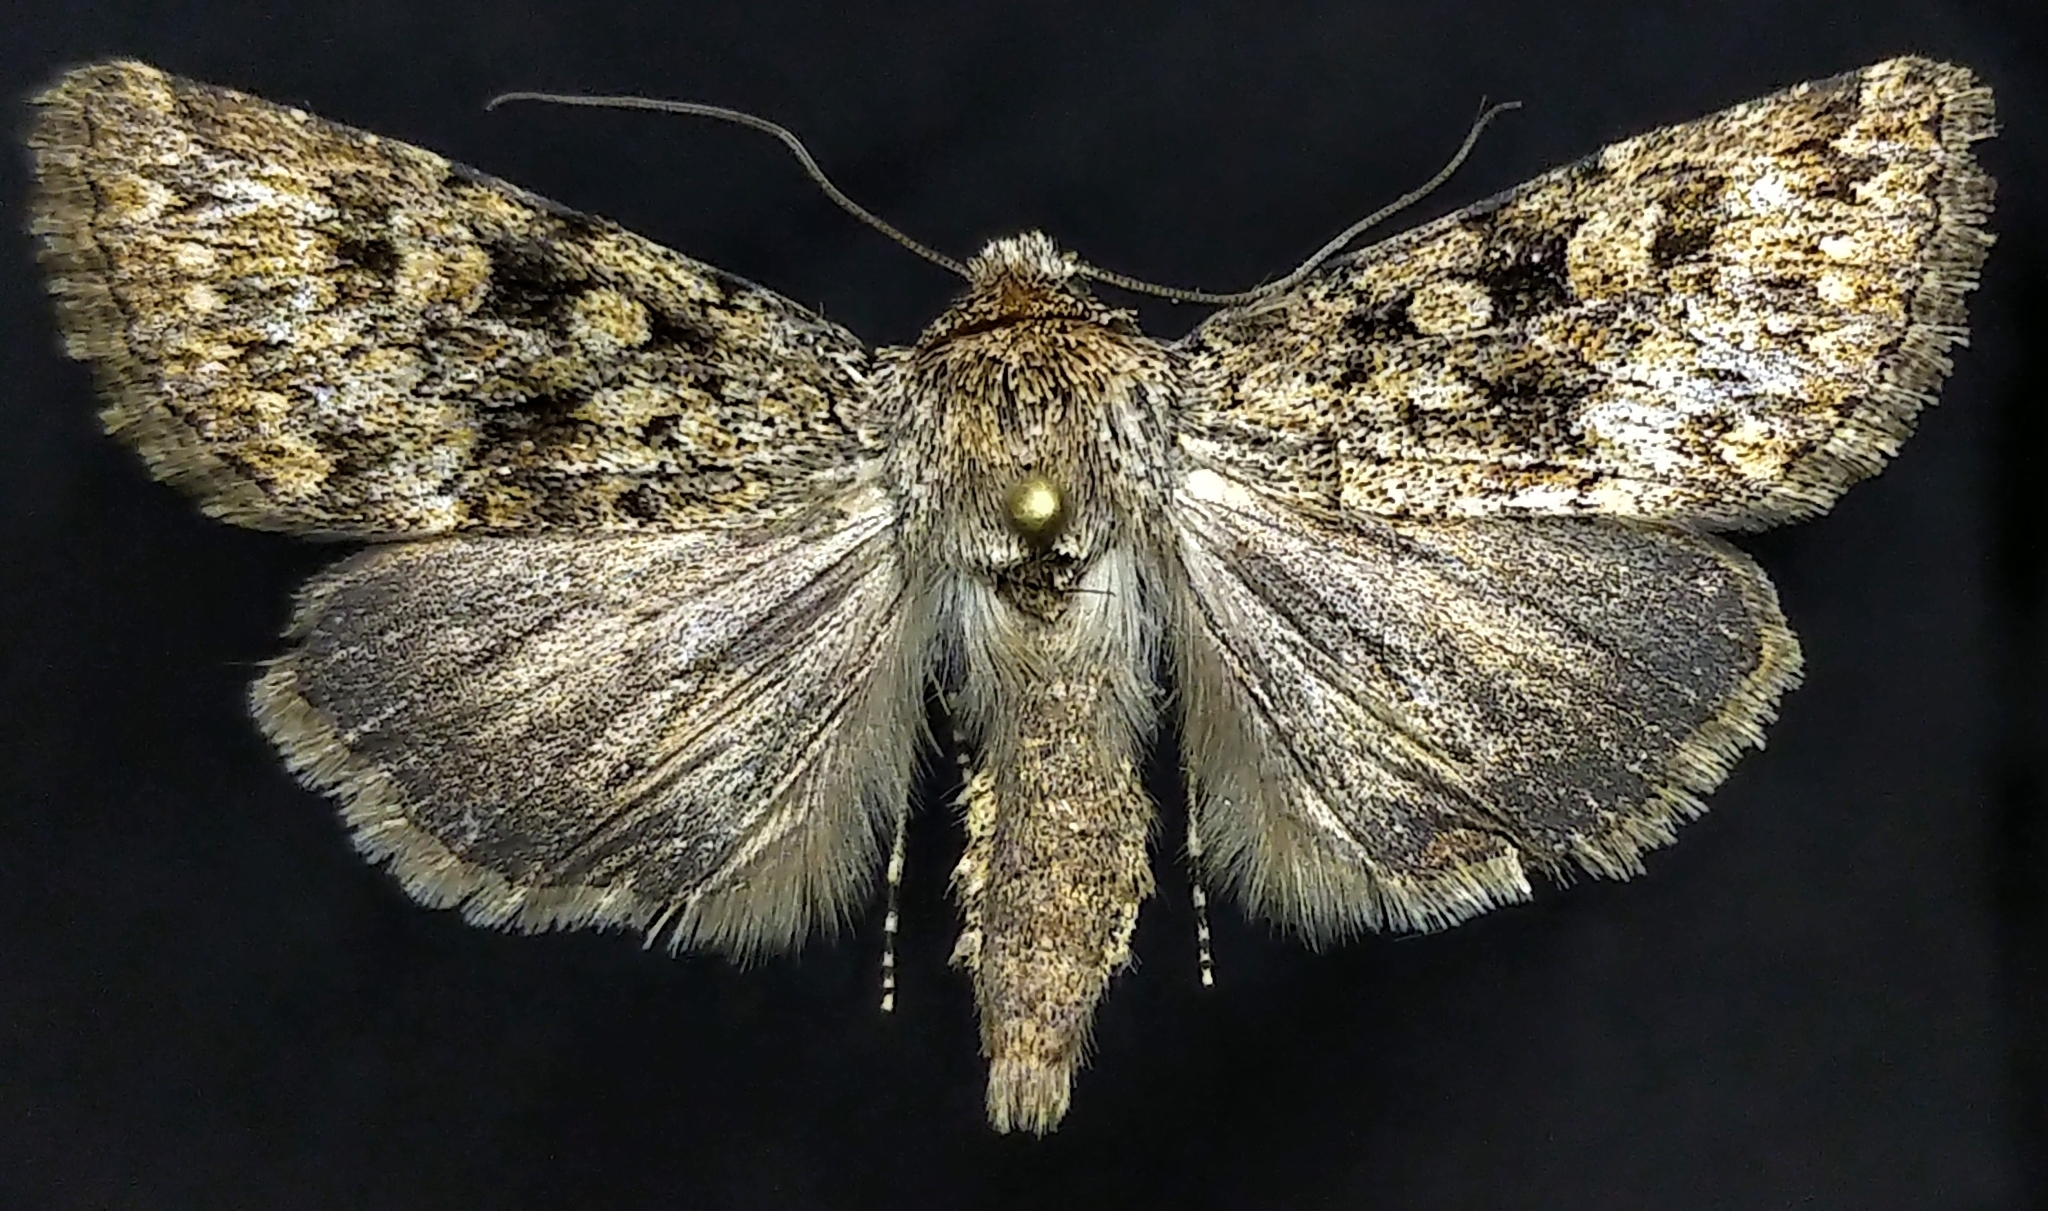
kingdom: Animalia
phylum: Arthropoda
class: Insecta
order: Lepidoptera
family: Noctuidae
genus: Sympistis
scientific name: Sympistis acheron
